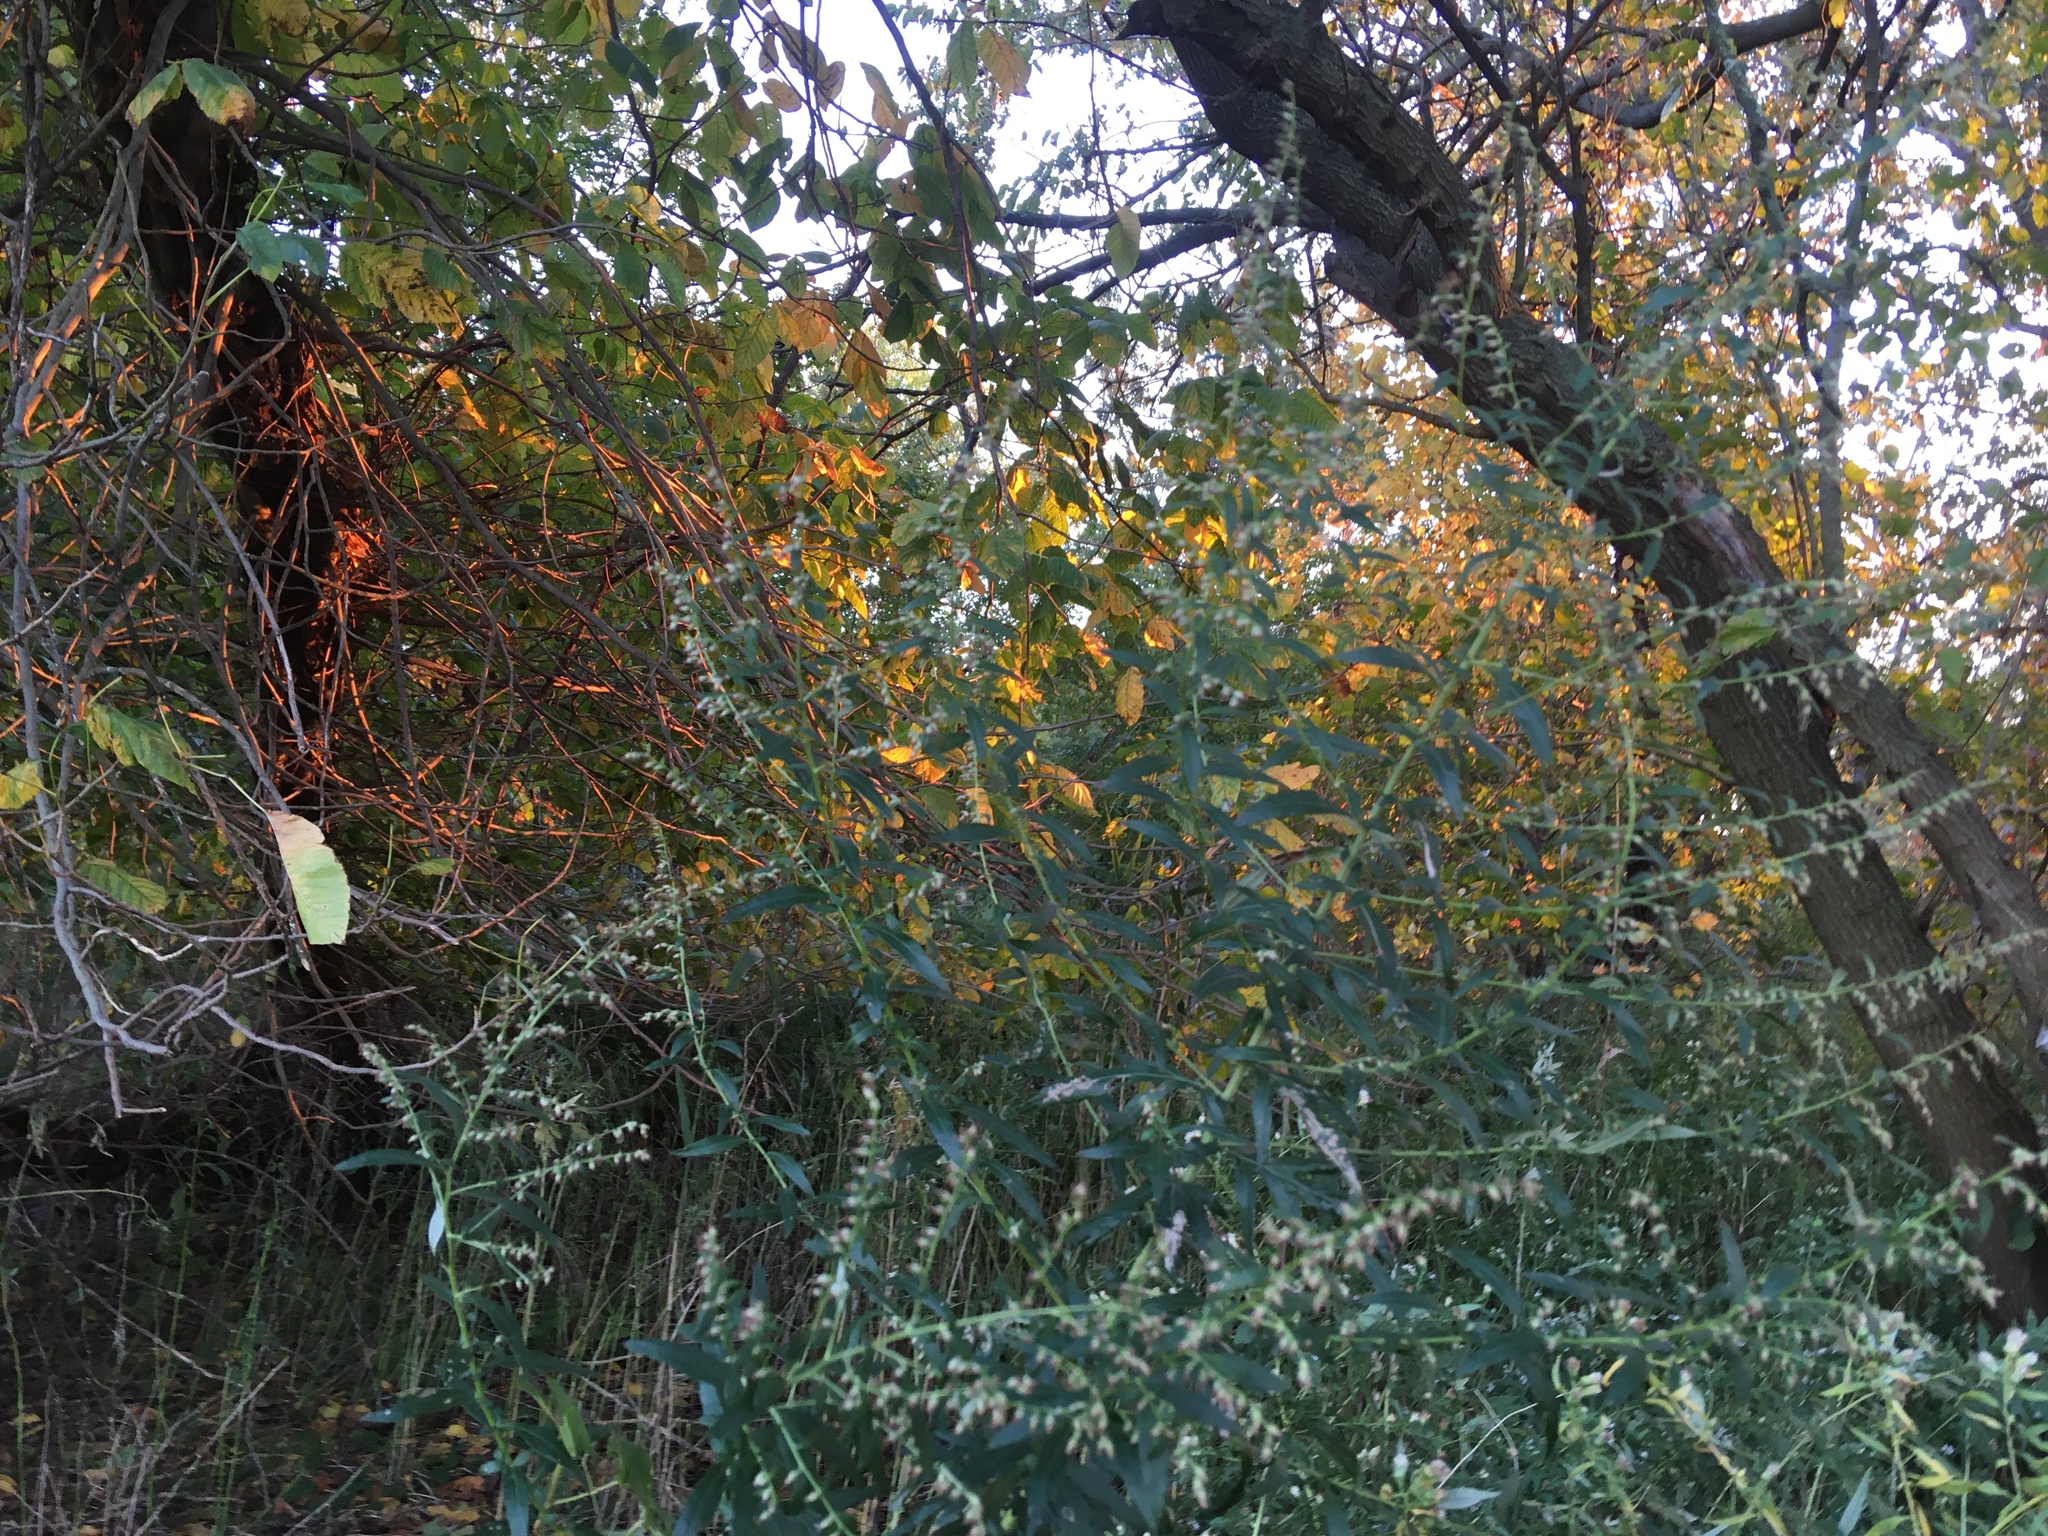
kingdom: Plantae
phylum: Tracheophyta
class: Magnoliopsida
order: Asterales
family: Asteraceae
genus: Artemisia
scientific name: Artemisia vulgaris
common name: Mugwort
